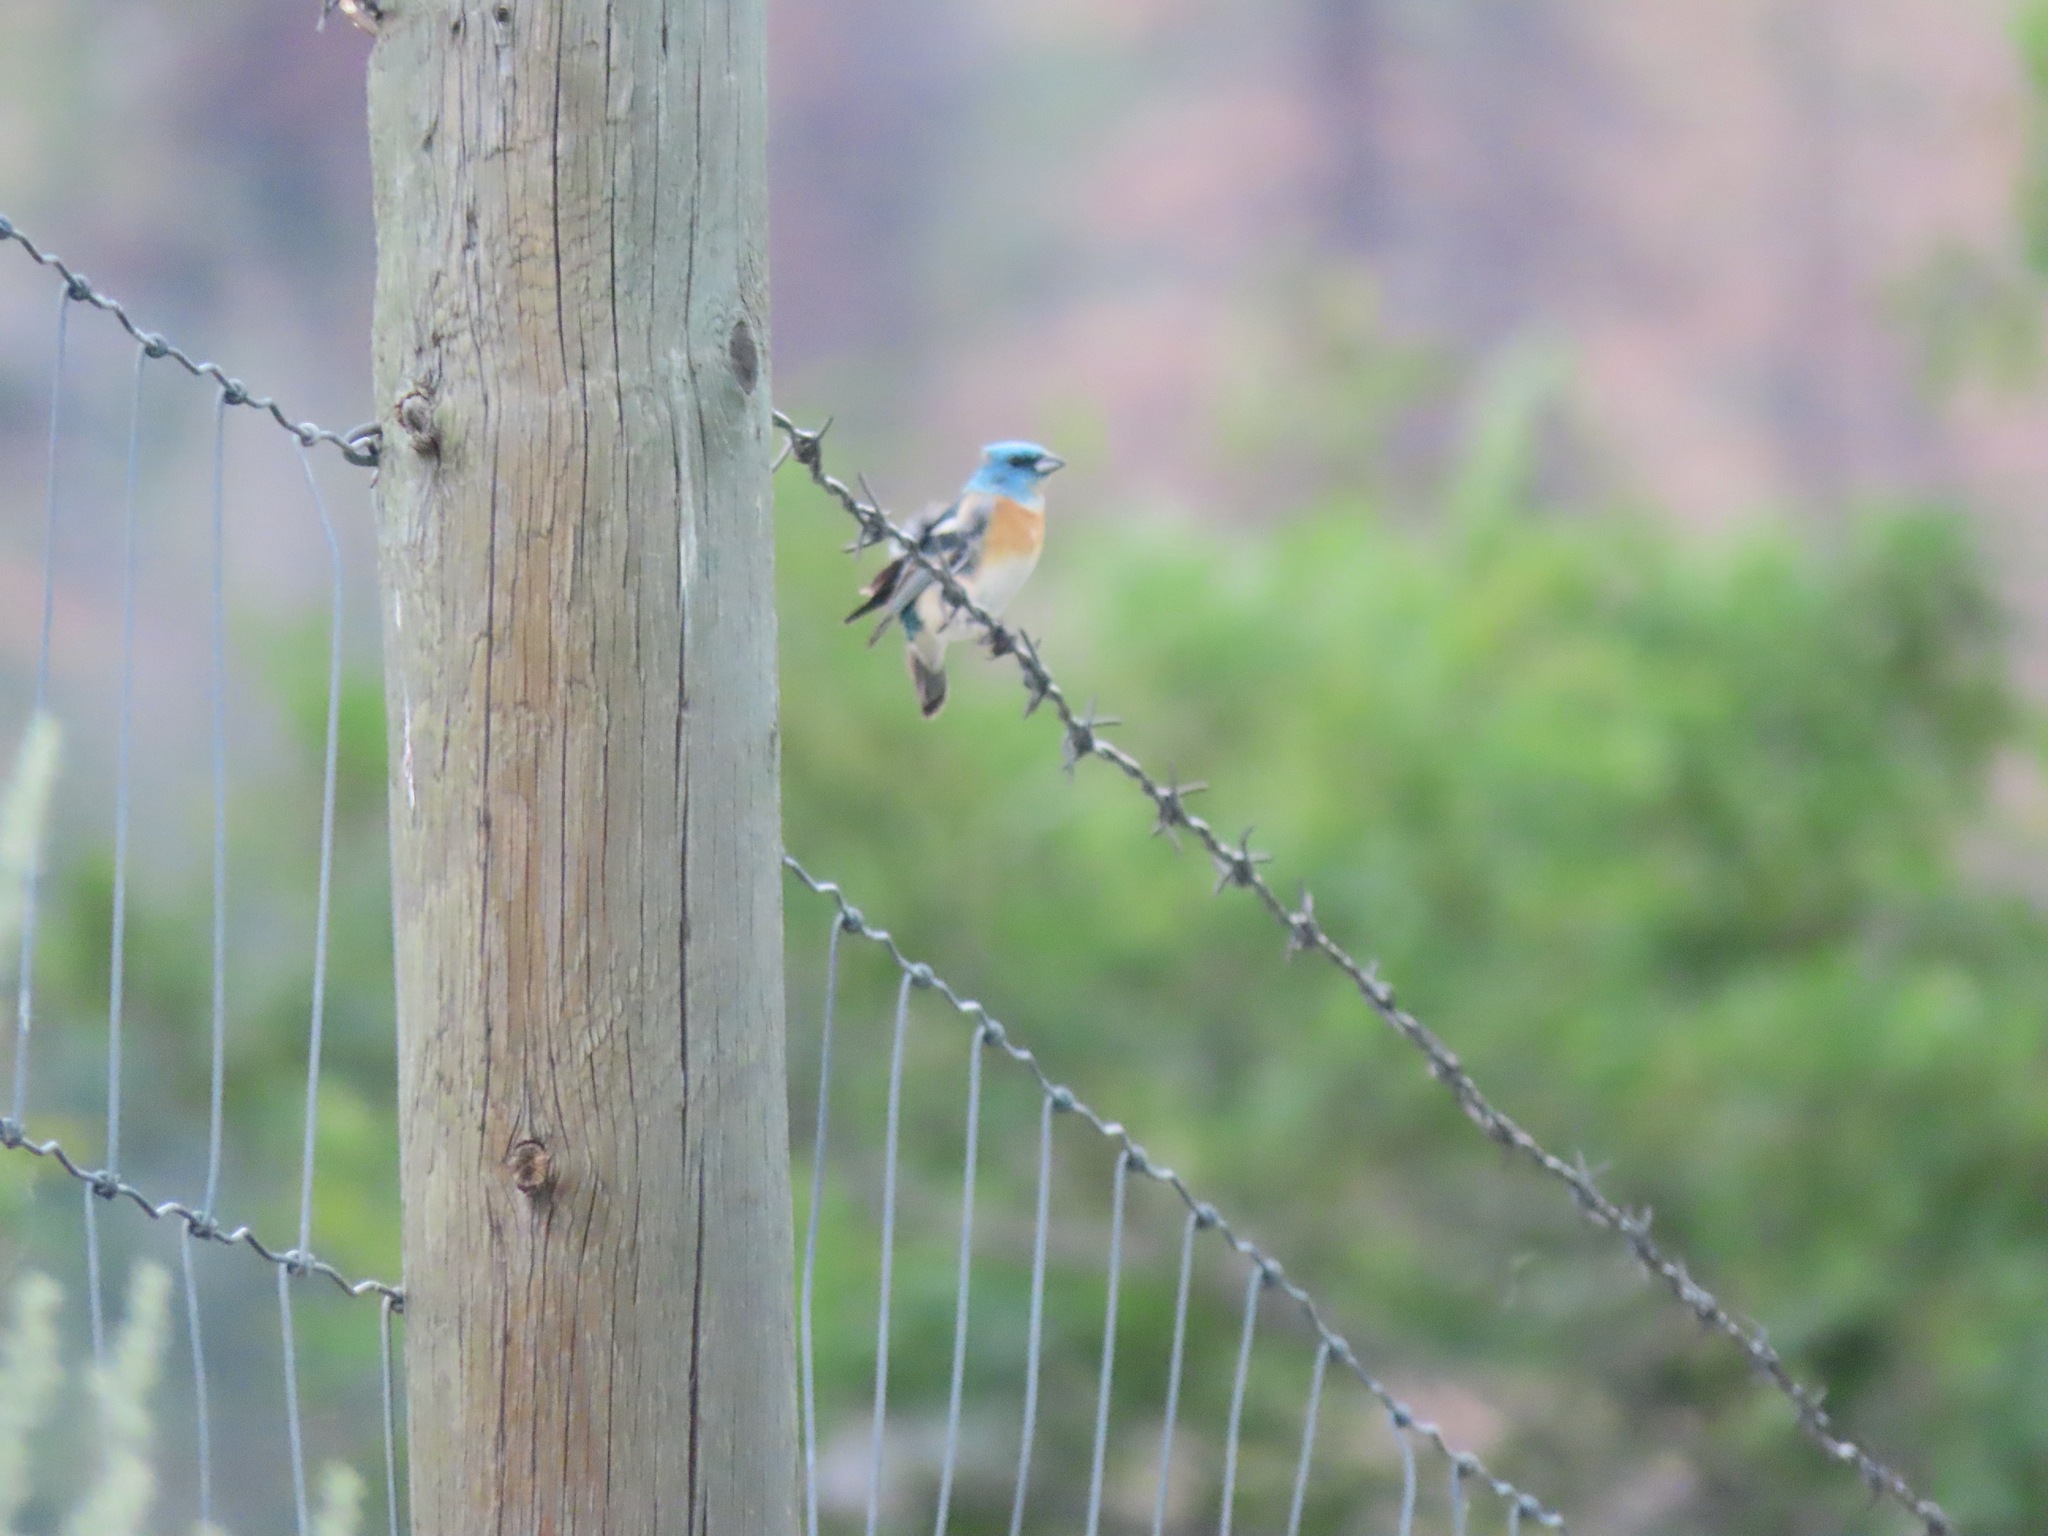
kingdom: Animalia
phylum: Chordata
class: Aves
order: Passeriformes
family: Cardinalidae
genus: Passerina
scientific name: Passerina amoena
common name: Lazuli bunting
